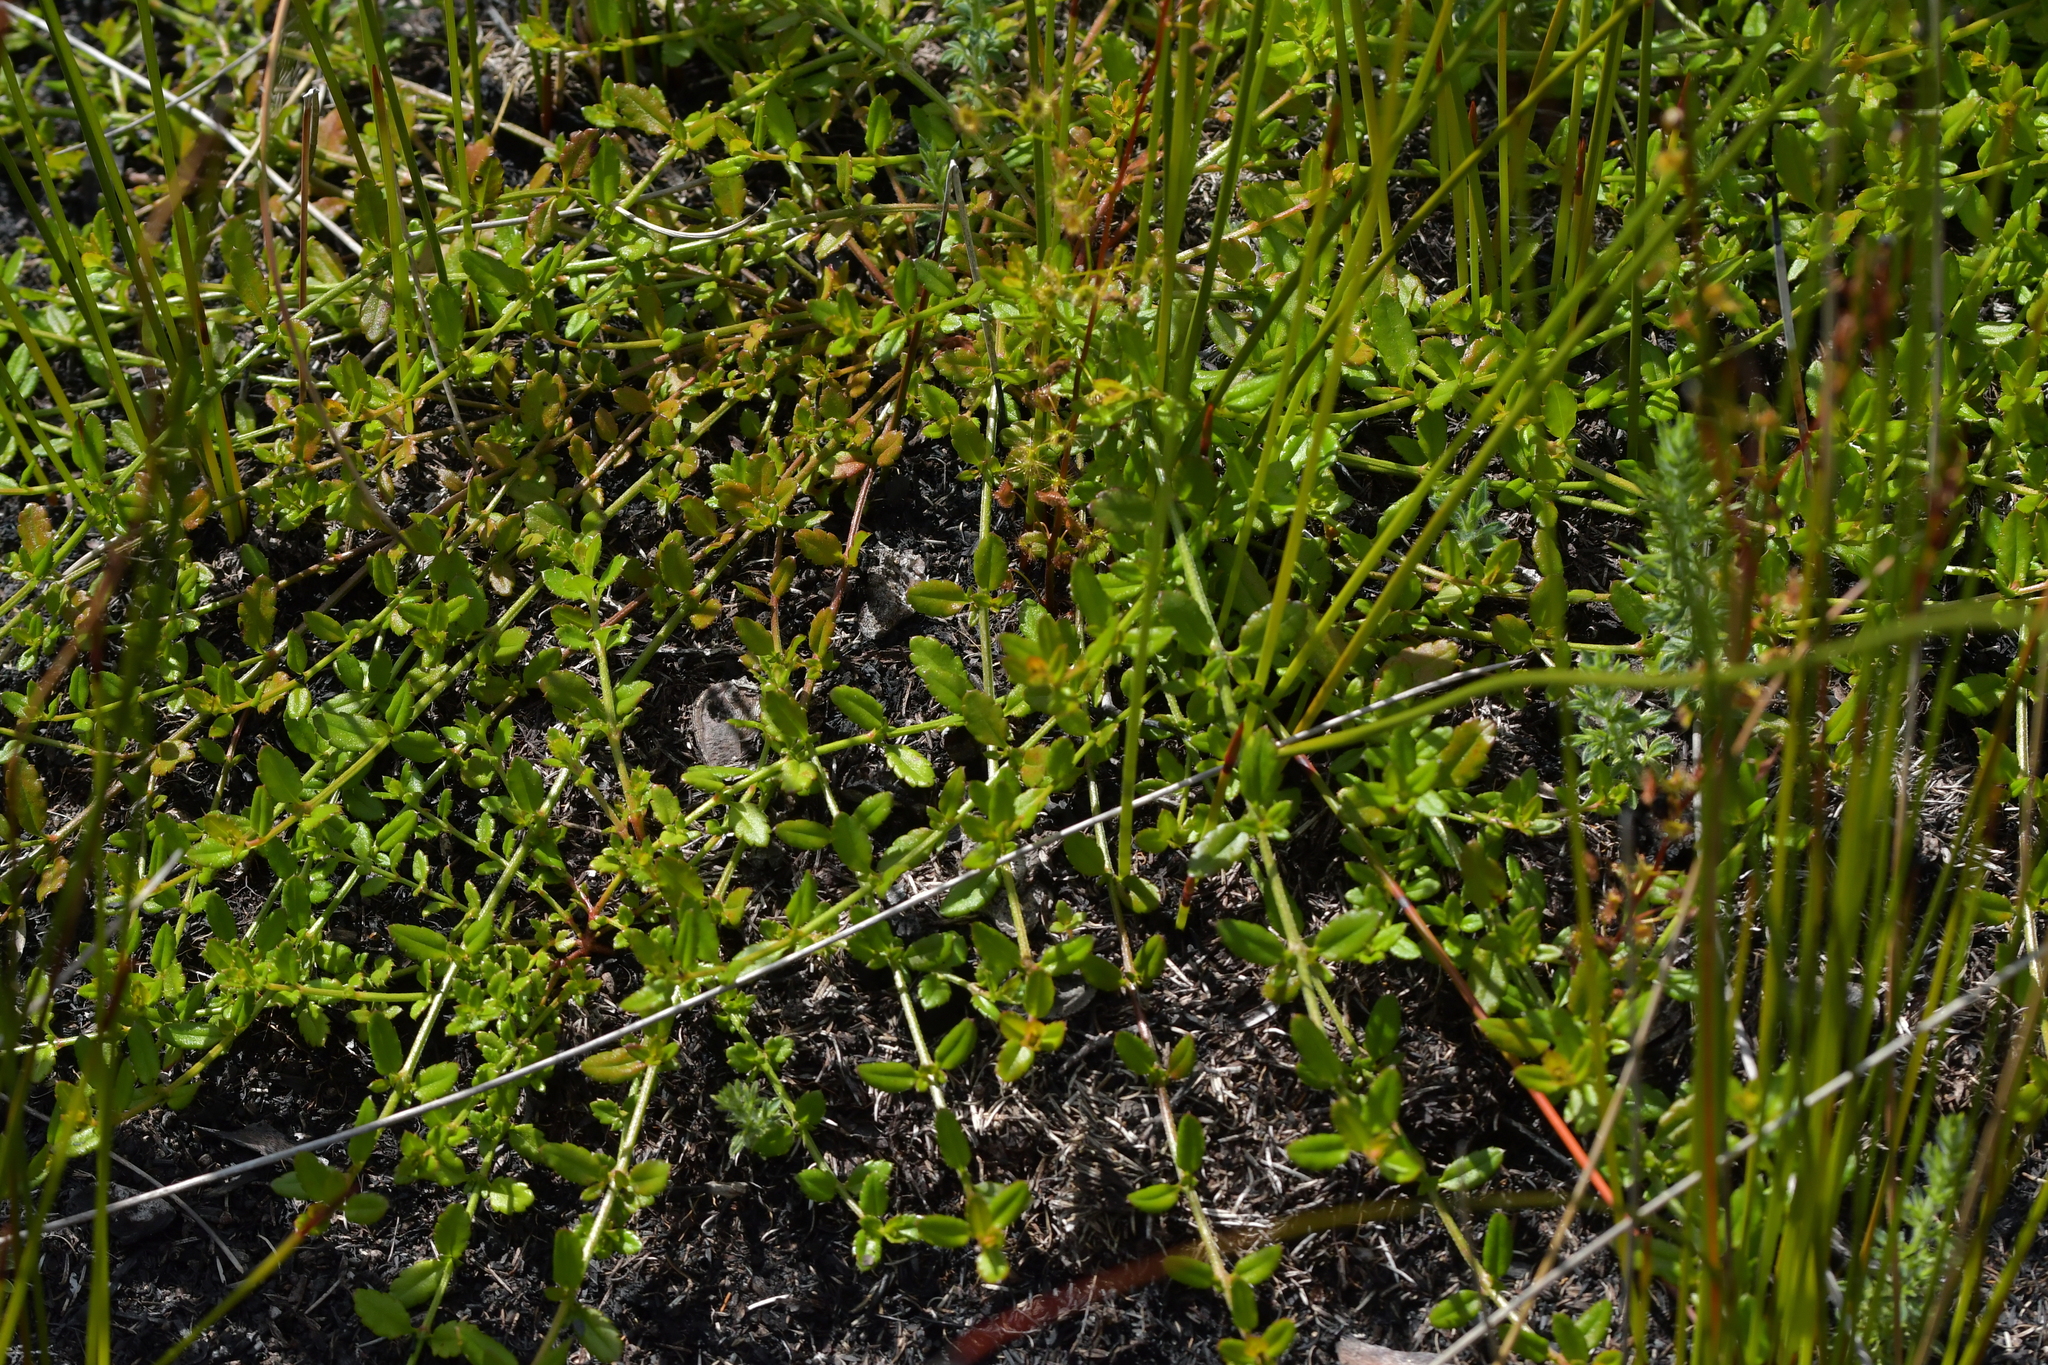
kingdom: Plantae
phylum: Tracheophyta
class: Magnoliopsida
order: Saxifragales
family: Haloragaceae
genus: Gonocarpus
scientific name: Gonocarpus incanus
